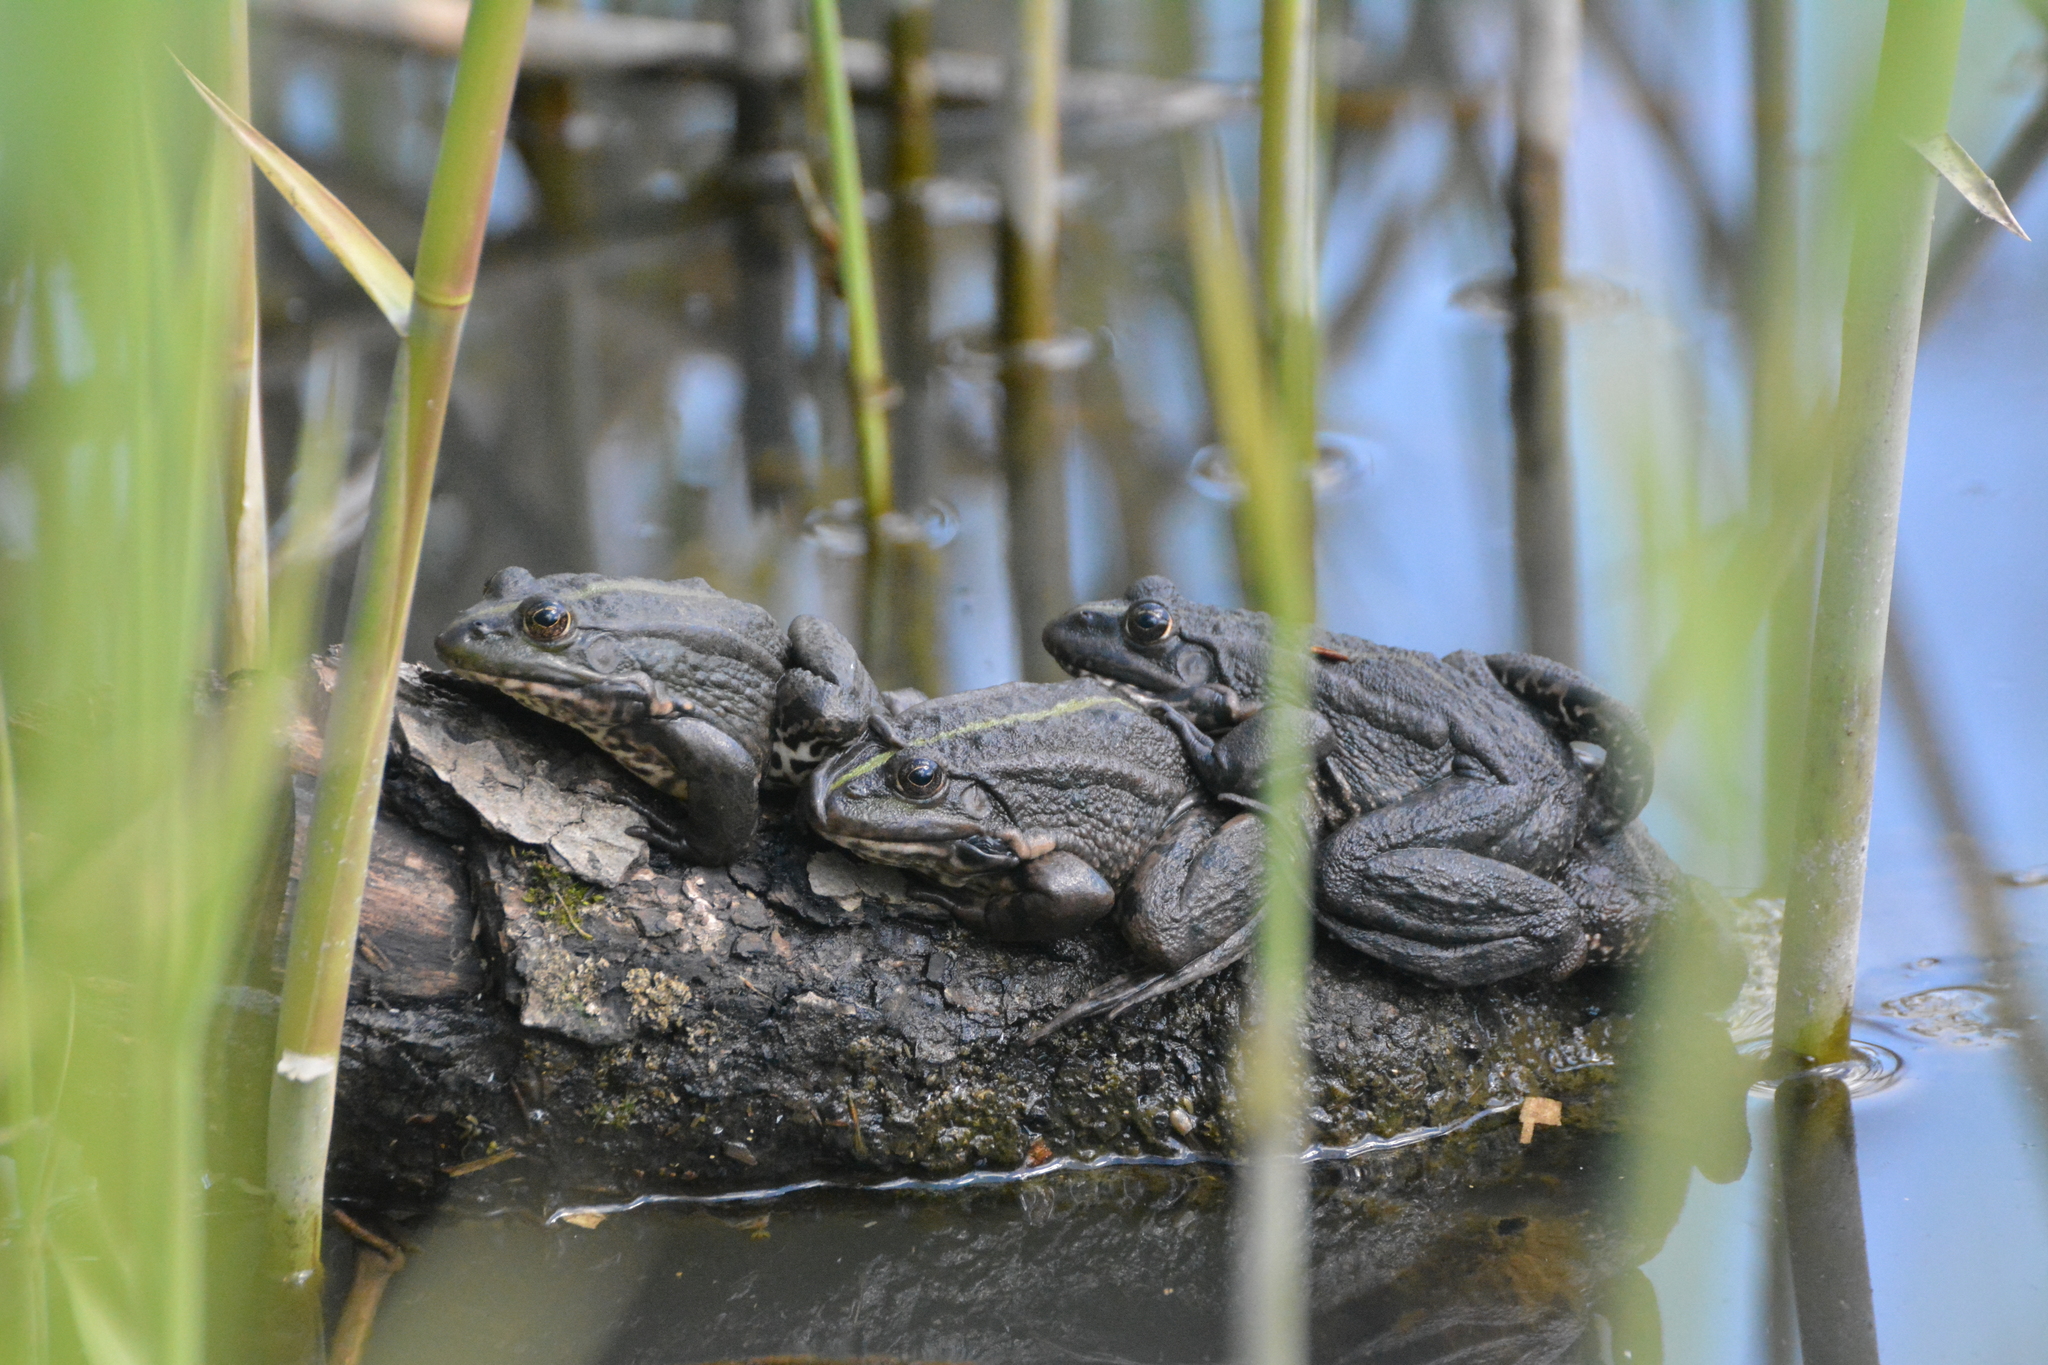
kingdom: Animalia
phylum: Chordata
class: Amphibia
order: Anura
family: Ranidae
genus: Pelophylax
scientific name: Pelophylax ridibundus
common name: Marsh frog
